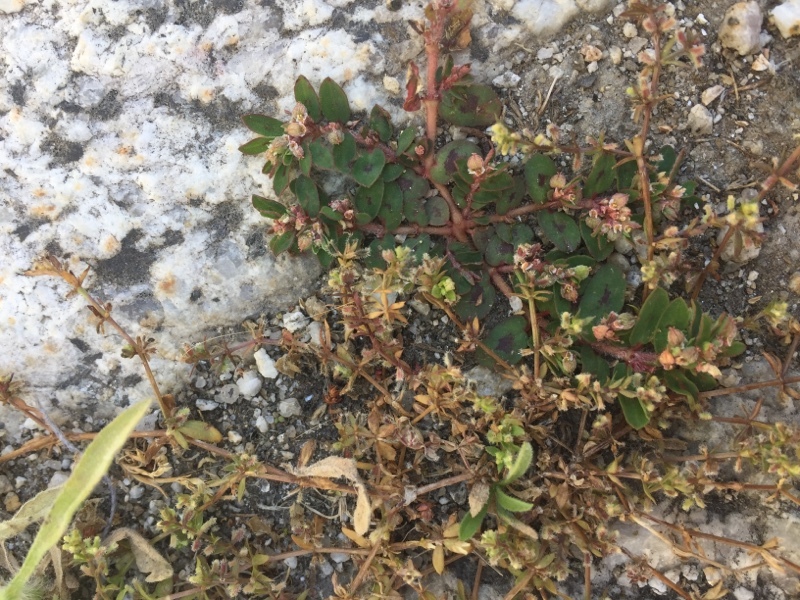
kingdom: Plantae
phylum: Tracheophyta
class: Magnoliopsida
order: Malpighiales
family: Euphorbiaceae
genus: Euphorbia
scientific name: Euphorbia maculata
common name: Spotted spurge
